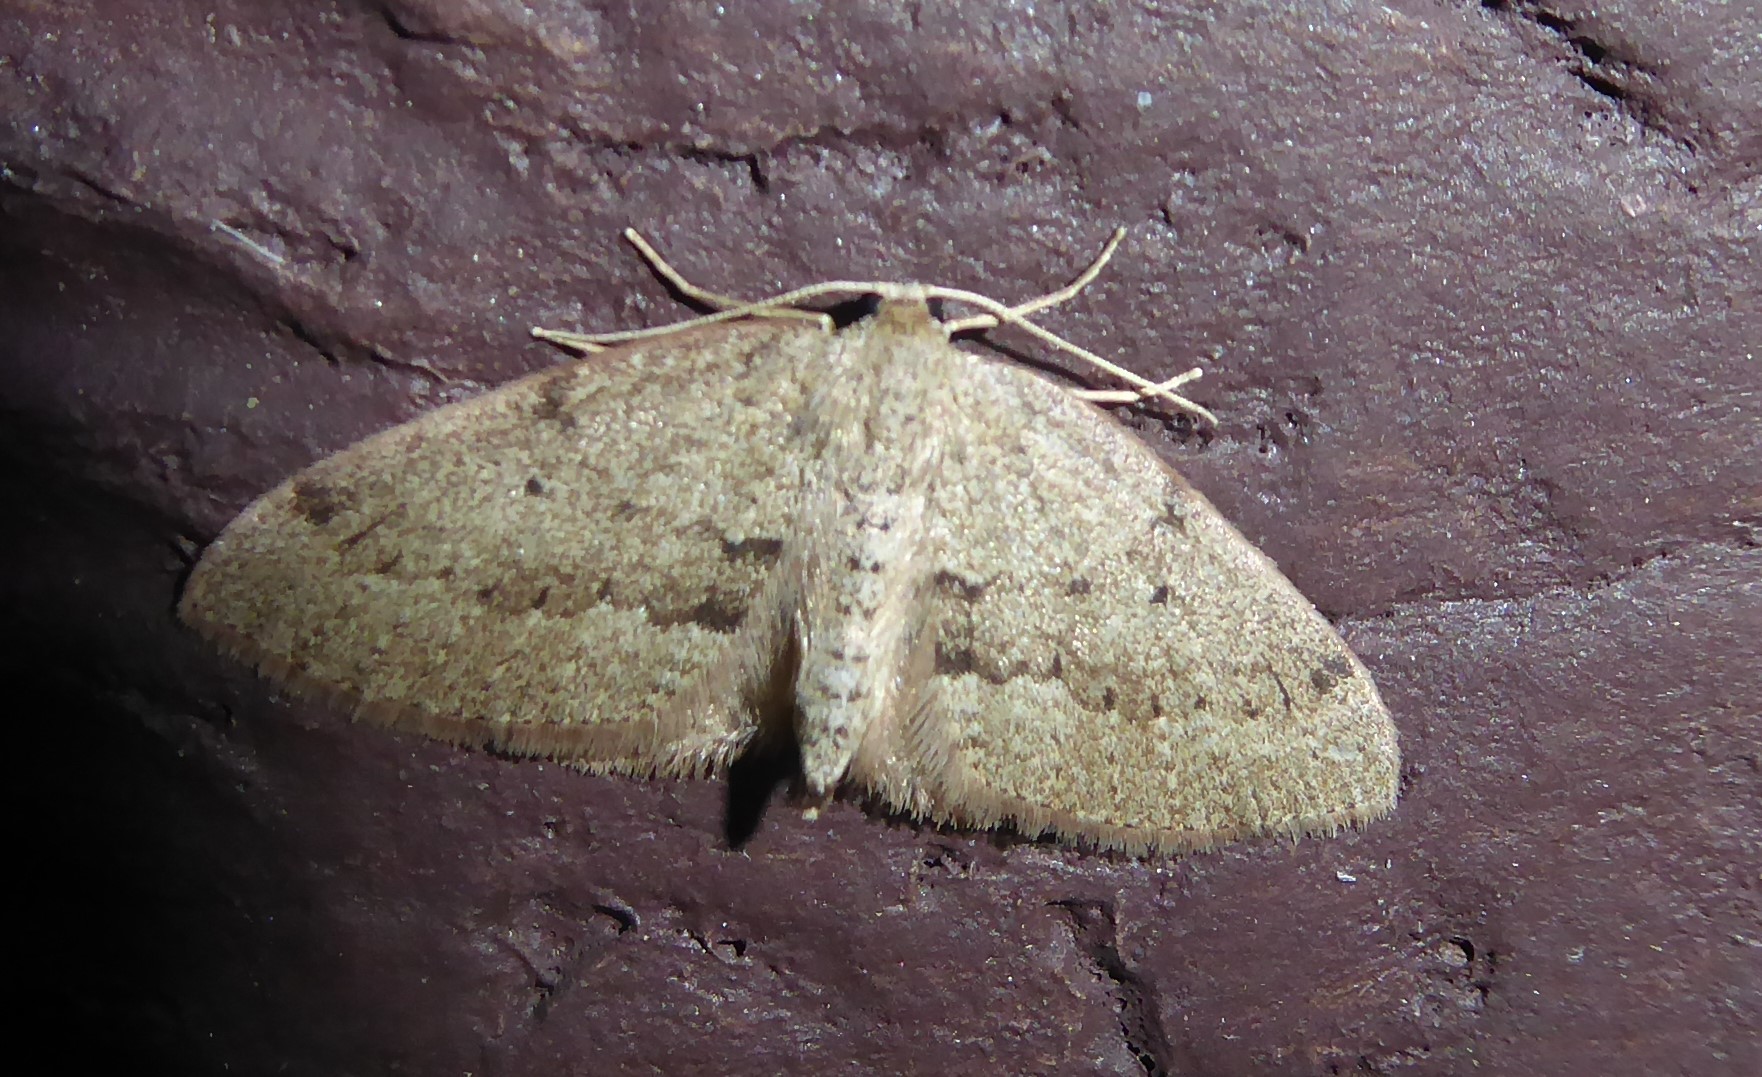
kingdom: Animalia
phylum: Arthropoda
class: Insecta
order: Lepidoptera
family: Geometridae
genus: Poecilasthena
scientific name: Poecilasthena schistaria
